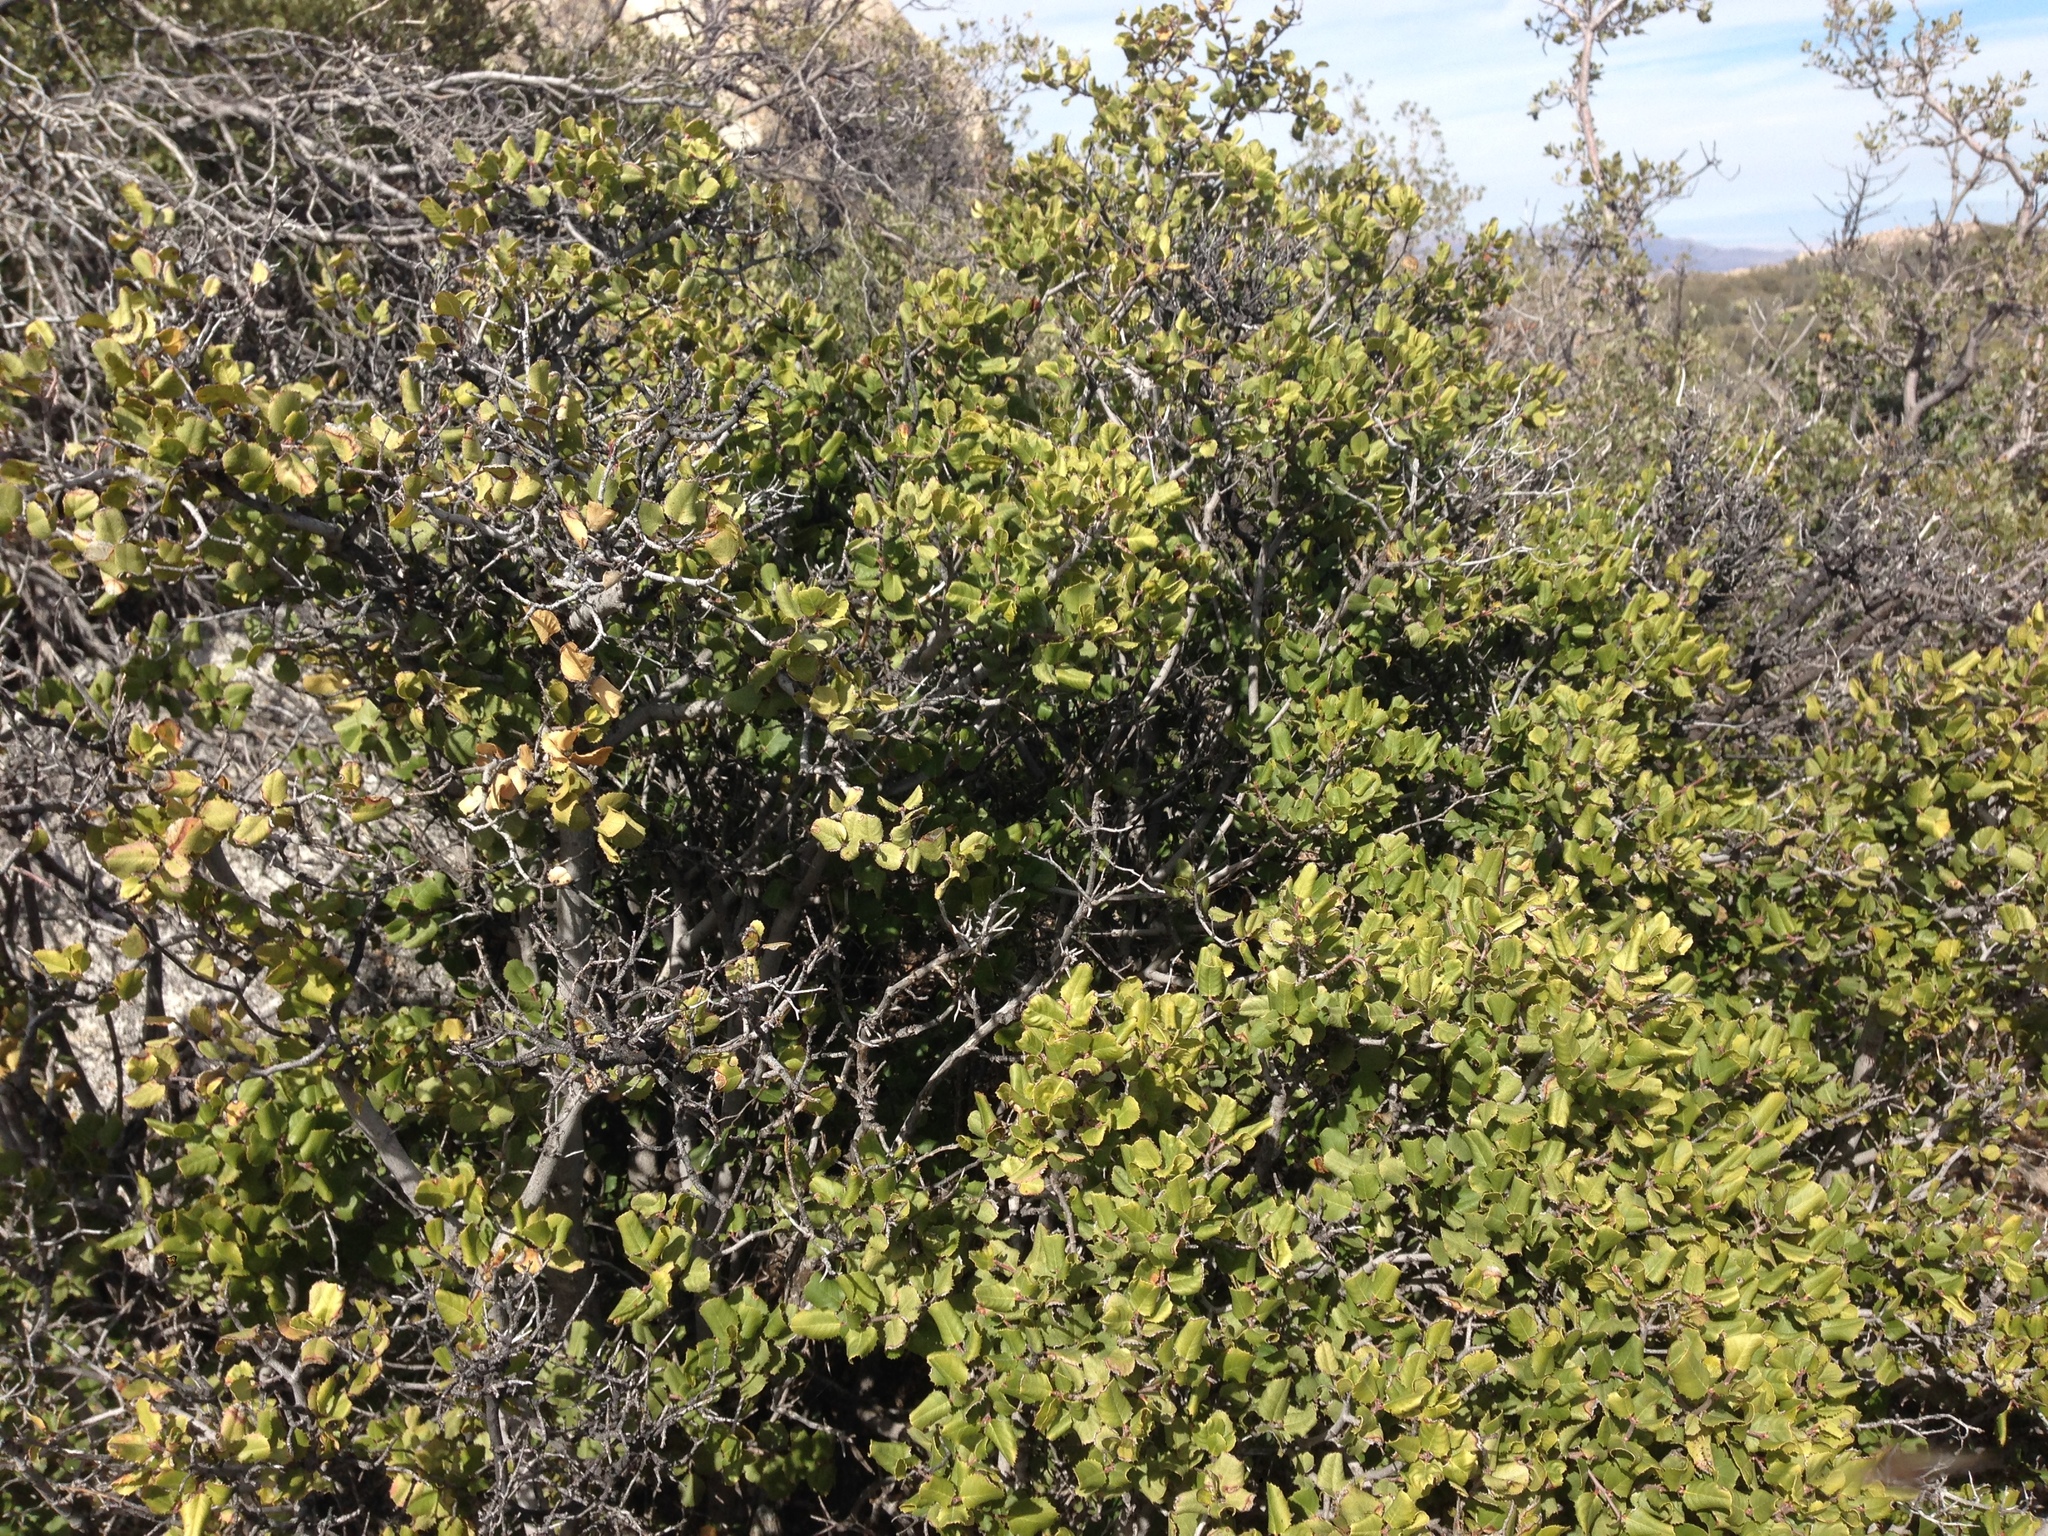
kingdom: Plantae
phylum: Tracheophyta
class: Magnoliopsida
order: Rosales
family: Rhamnaceae
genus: Endotropis
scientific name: Endotropis crocea
